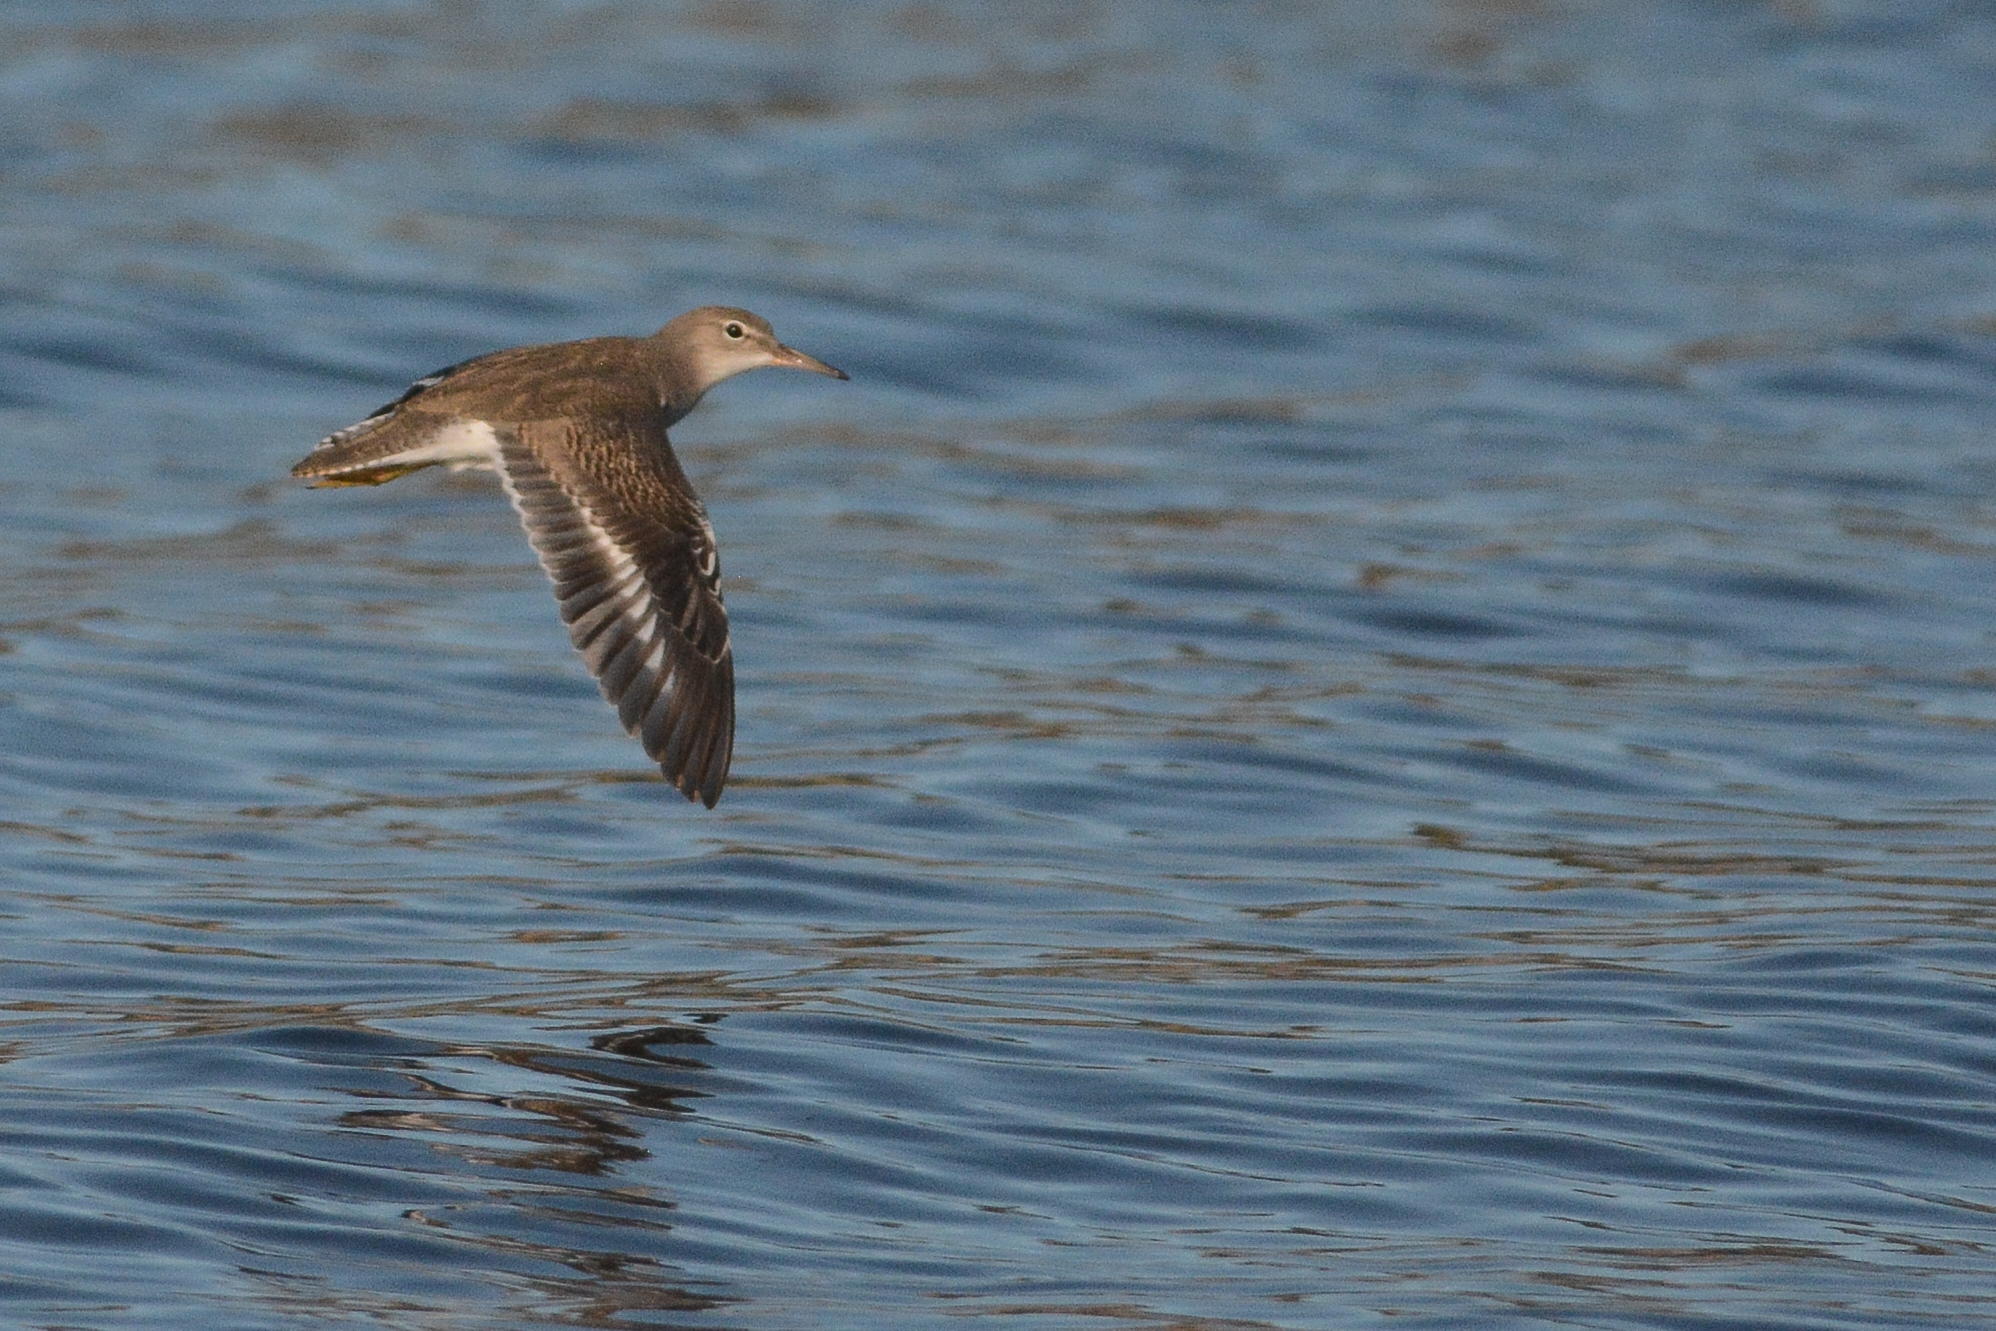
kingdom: Animalia
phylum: Chordata
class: Aves
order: Charadriiformes
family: Scolopacidae
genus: Actitis
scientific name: Actitis macularius
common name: Spotted sandpiper
